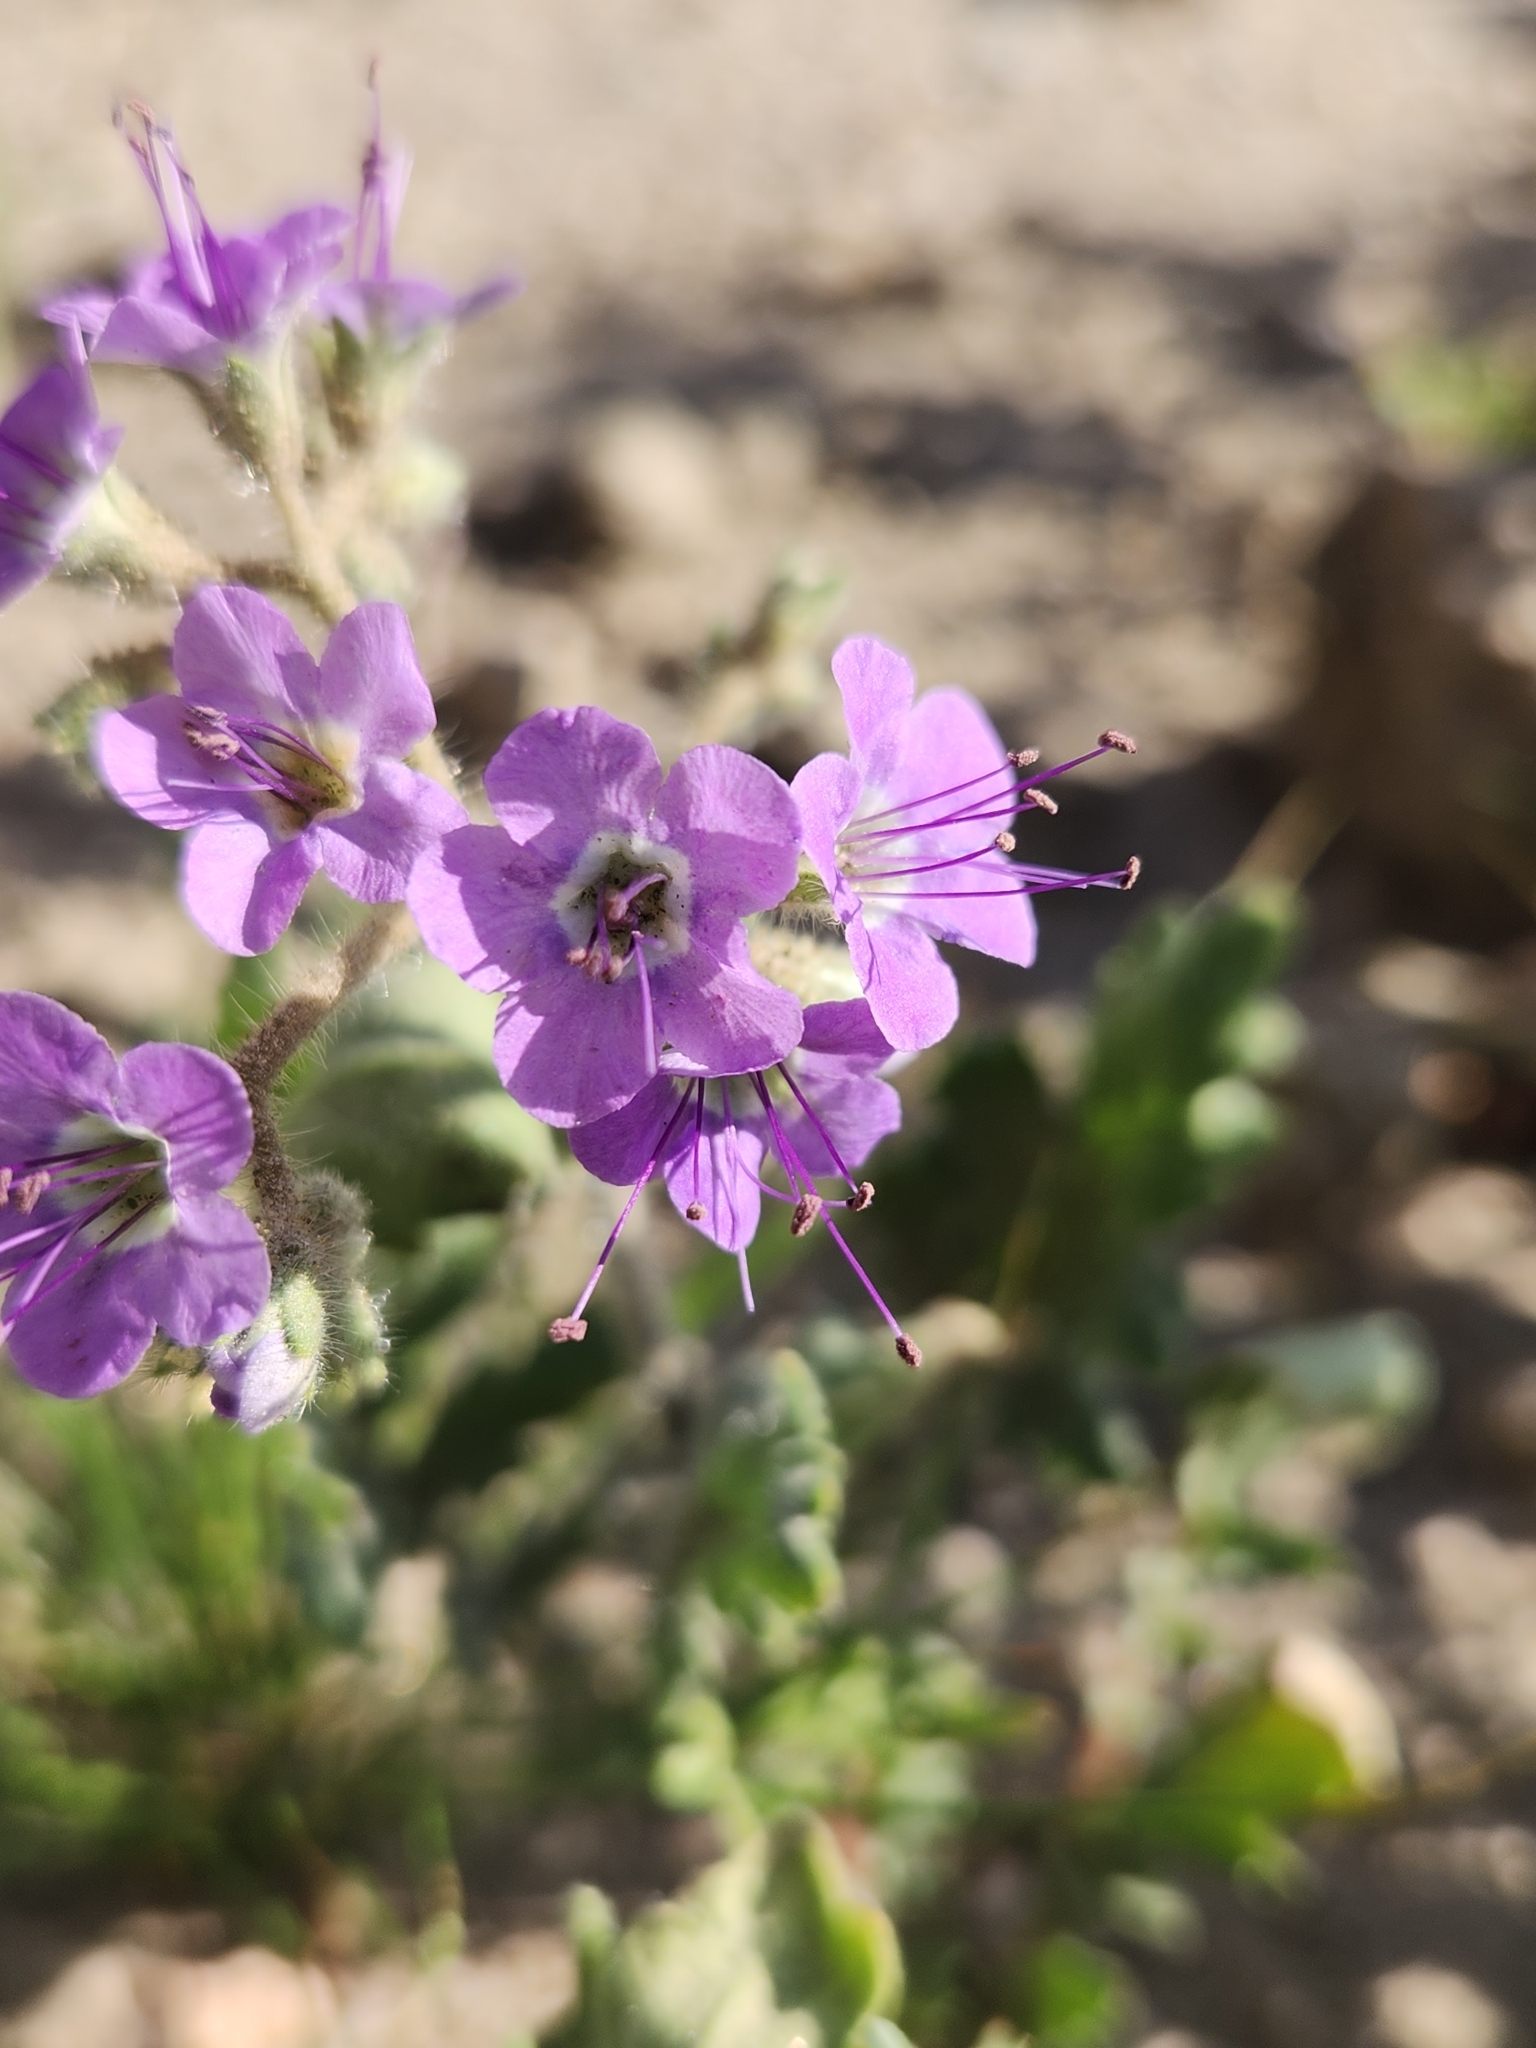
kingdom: Plantae
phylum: Tracheophyta
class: Magnoliopsida
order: Boraginales
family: Hydrophyllaceae
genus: Phacelia
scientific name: Phacelia crenulata
